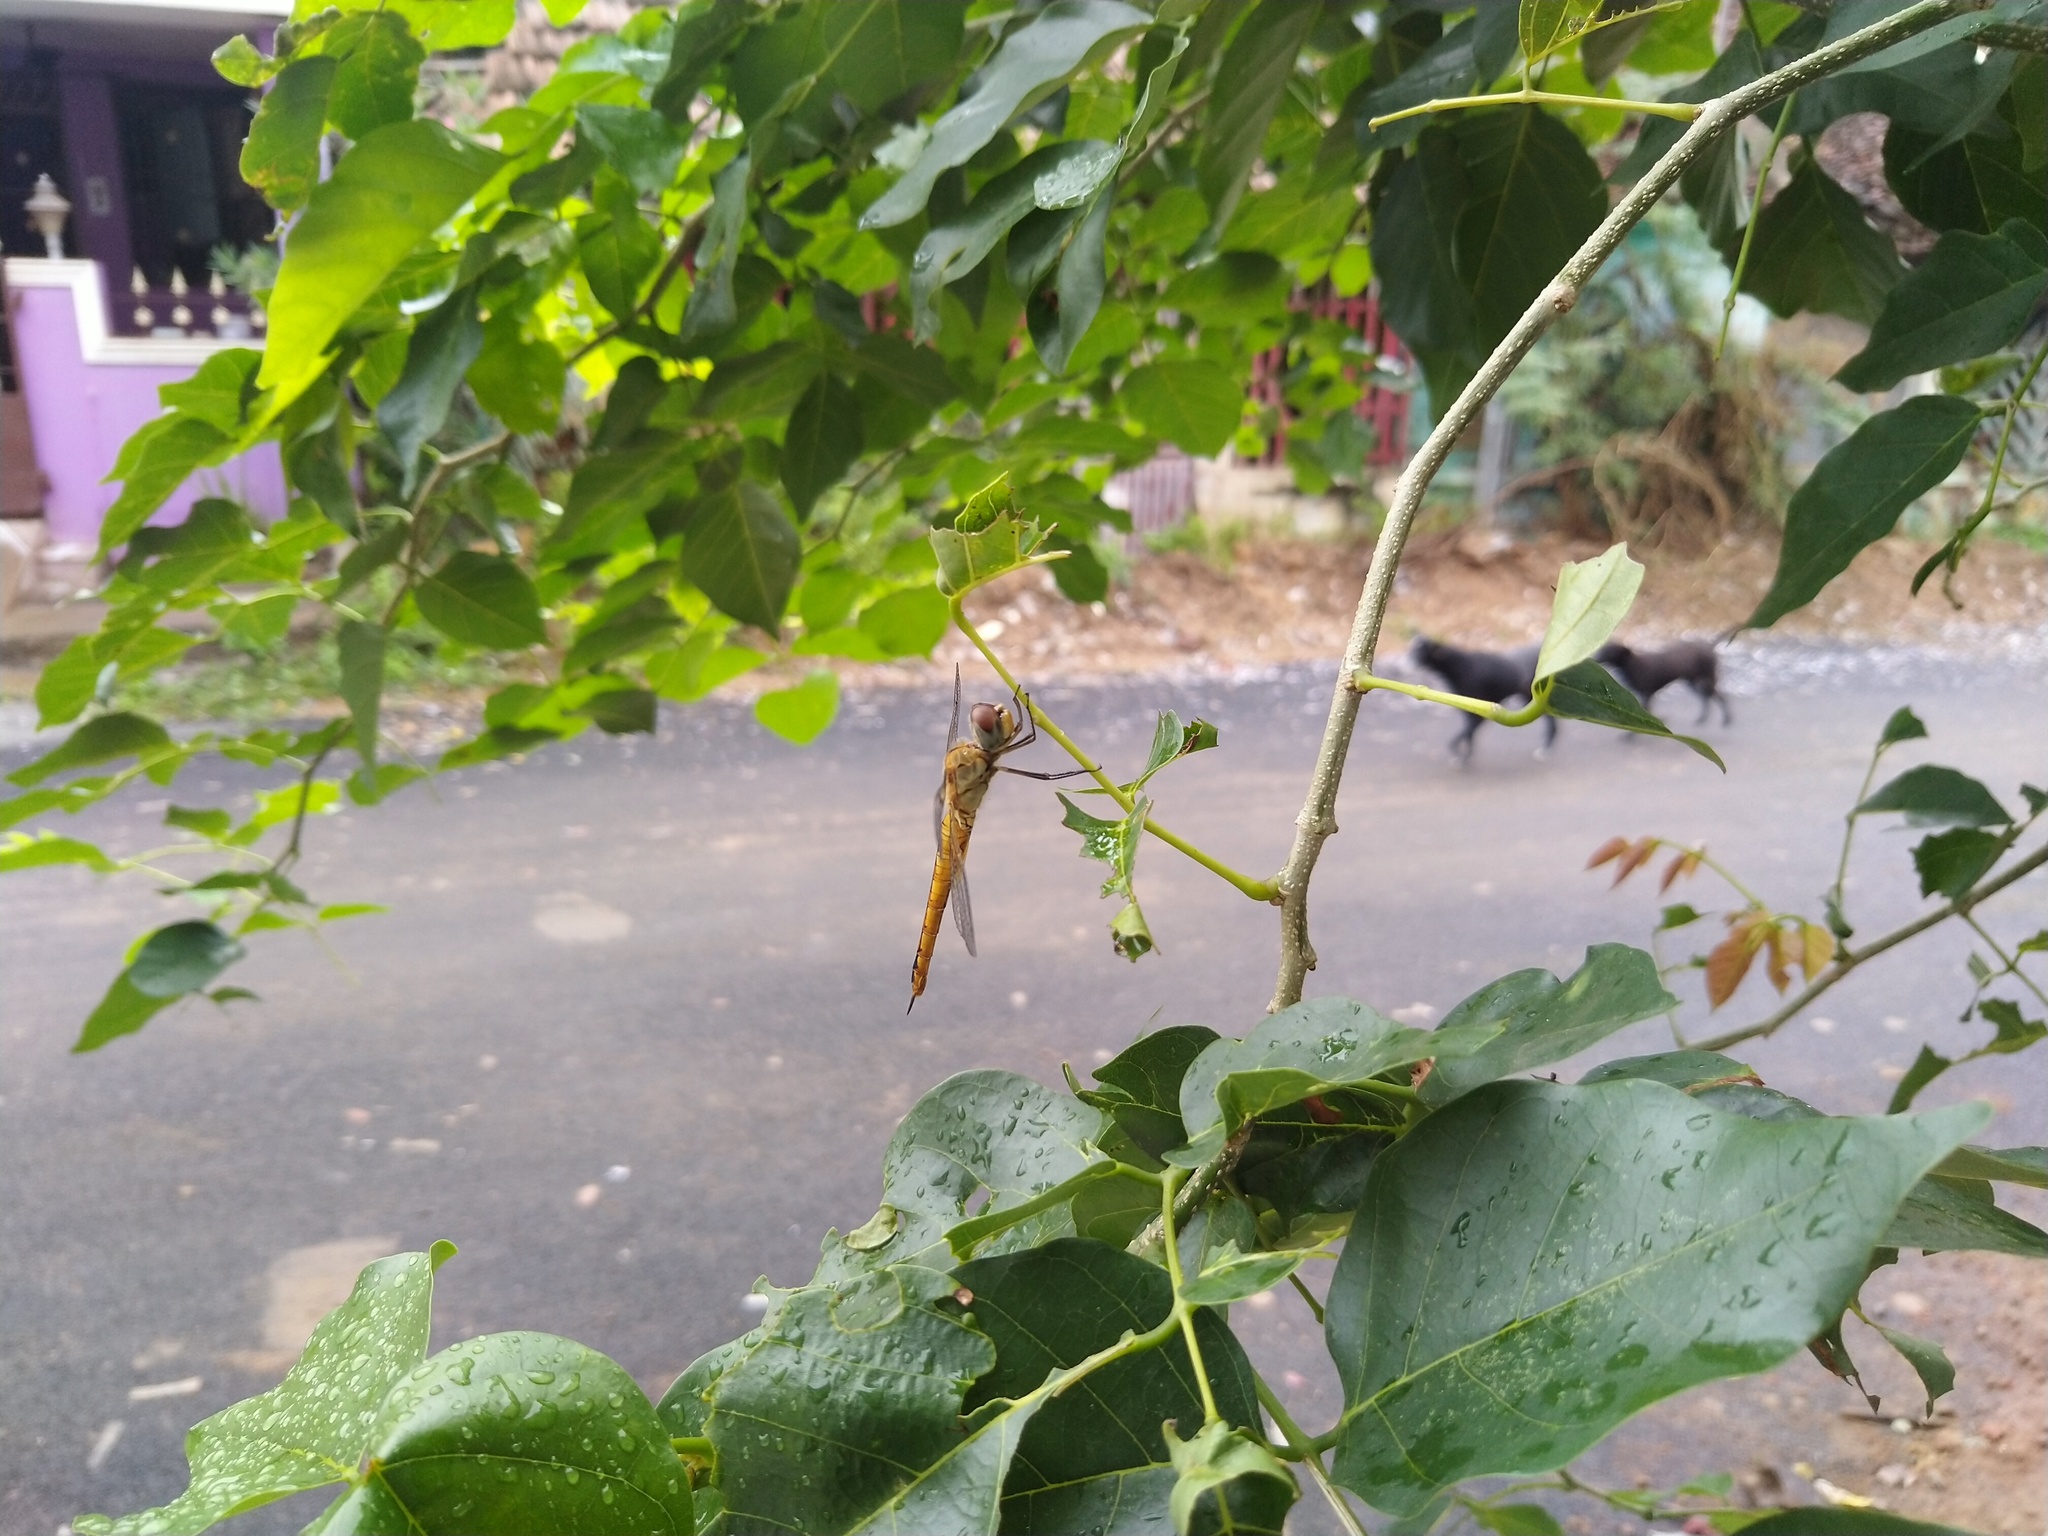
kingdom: Animalia
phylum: Arthropoda
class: Insecta
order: Odonata
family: Libellulidae
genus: Pantala
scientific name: Pantala flavescens
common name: Wandering glider
